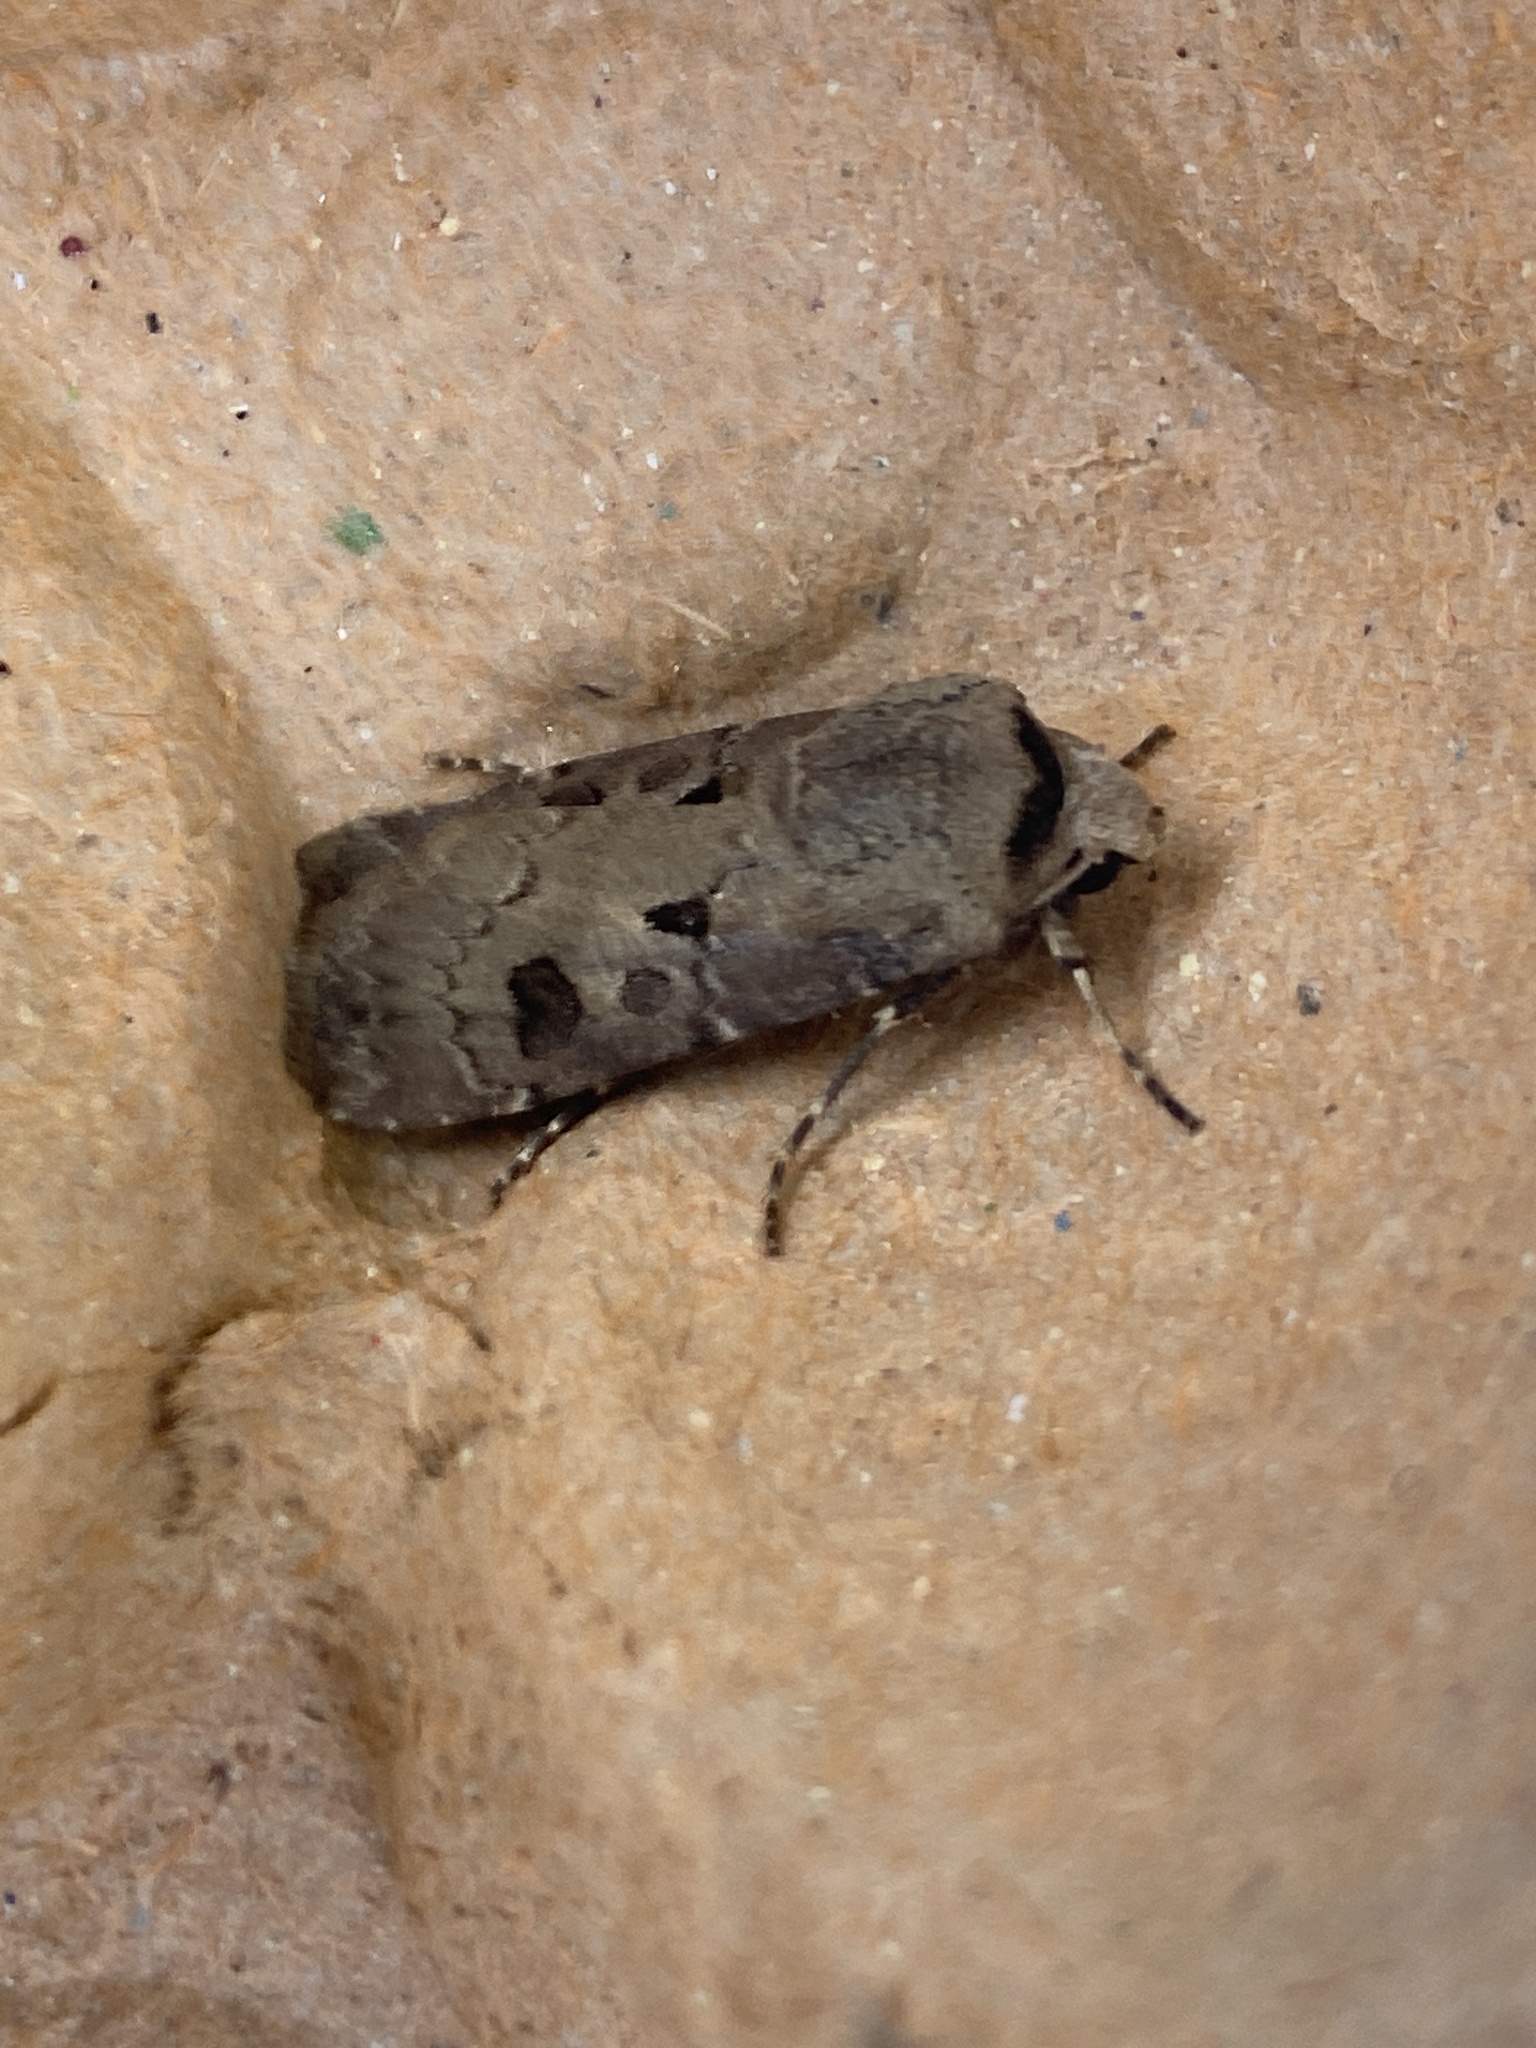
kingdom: Animalia
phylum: Arthropoda
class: Insecta
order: Lepidoptera
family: Noctuidae
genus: Agrotis
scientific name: Agrotis exclamationis
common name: Heart and dart
